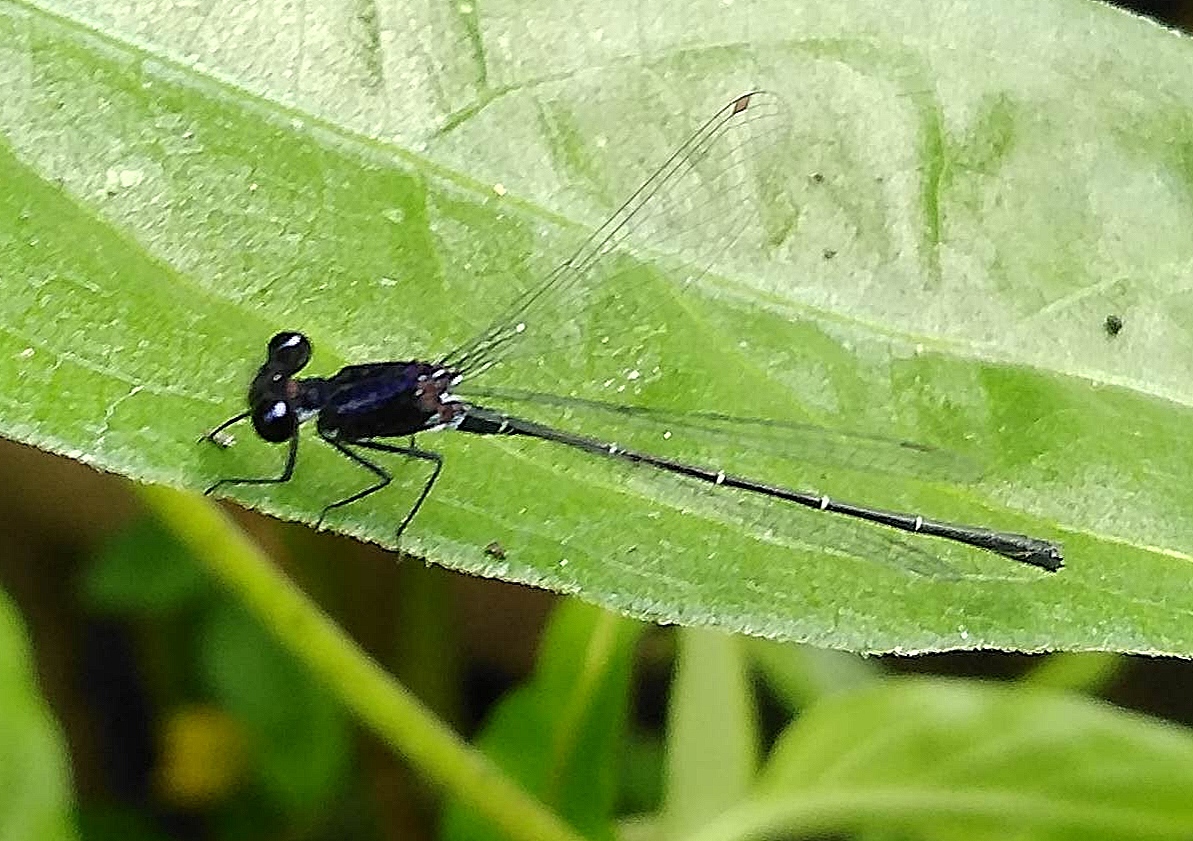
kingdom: Animalia
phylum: Arthropoda
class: Insecta
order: Odonata
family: Platycnemididae
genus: Onychargia
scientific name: Onychargia atrocyana
